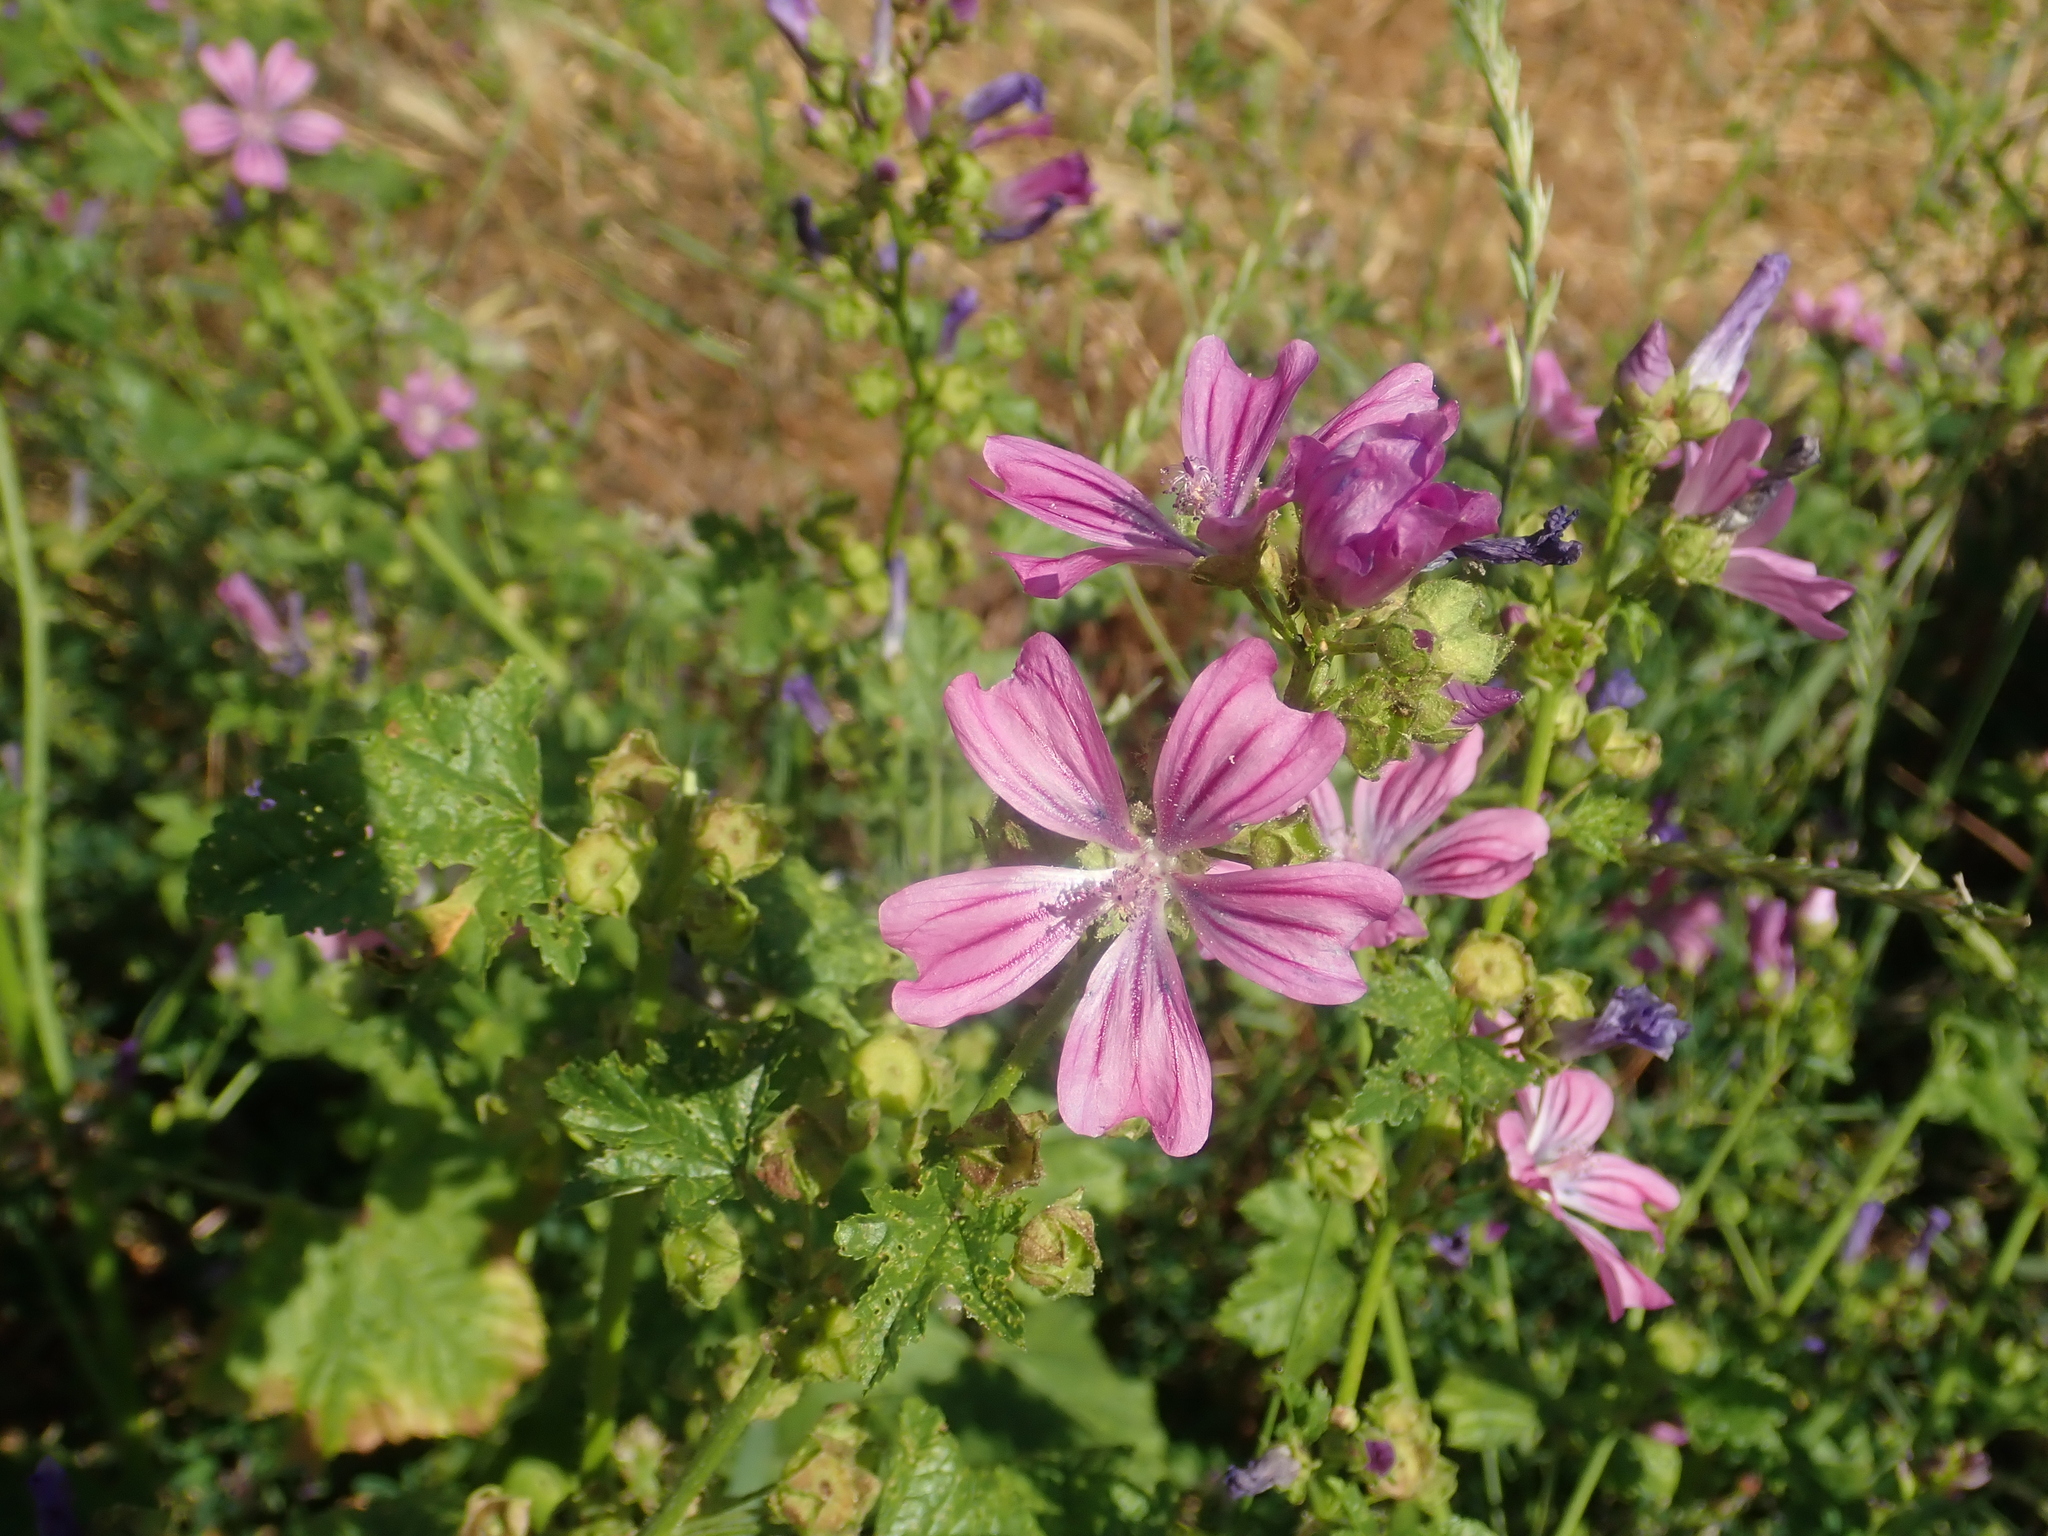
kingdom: Plantae
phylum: Tracheophyta
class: Magnoliopsida
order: Malvales
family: Malvaceae
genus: Malva
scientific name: Malva sylvestris
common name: Common mallow
